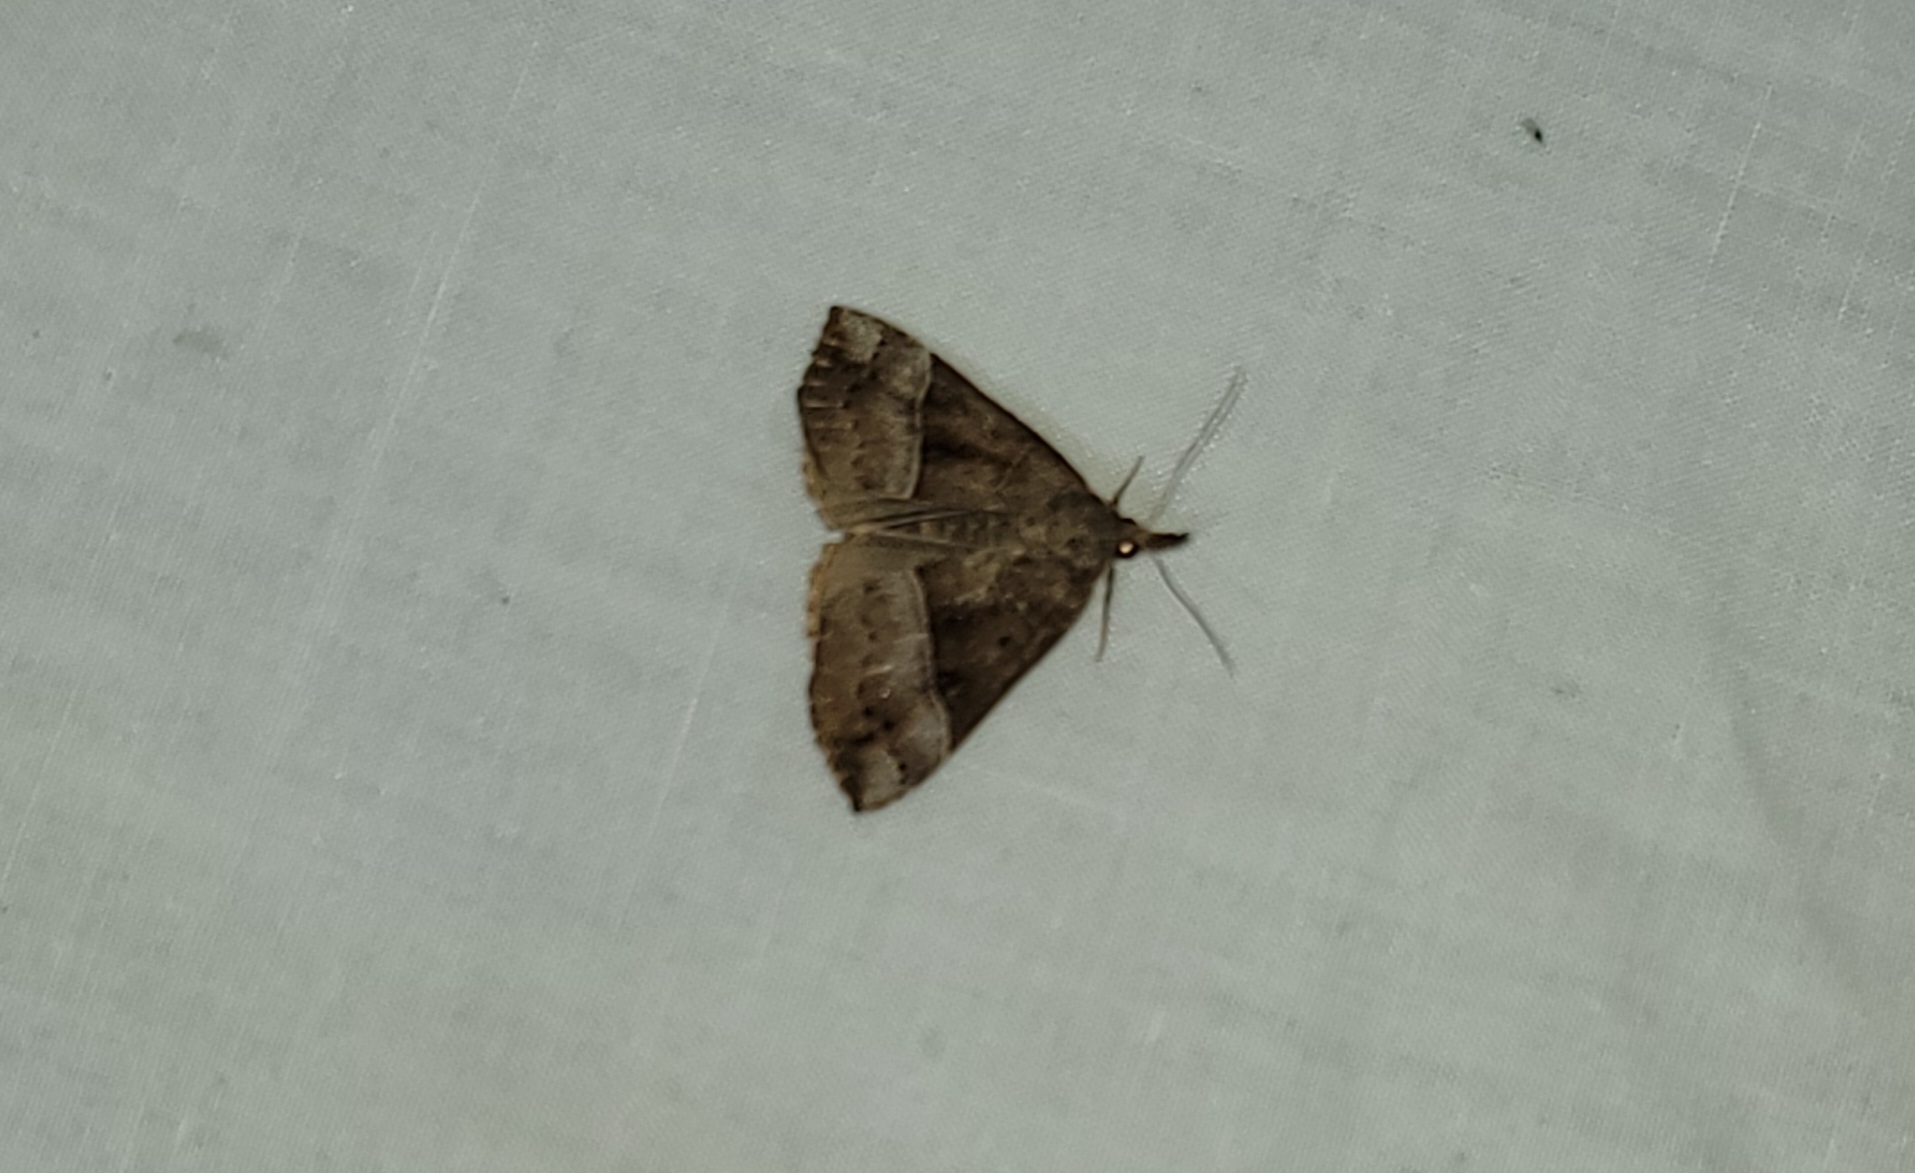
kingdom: Animalia
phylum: Arthropoda
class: Insecta
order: Lepidoptera
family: Erebidae
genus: Hypena
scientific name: Hypena deceptalis
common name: Deceptive snout
